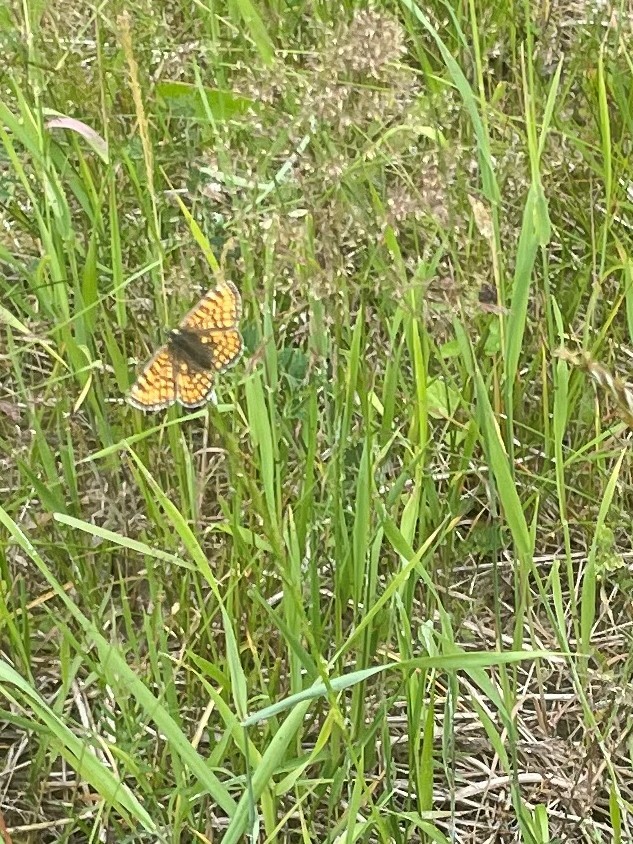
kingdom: Animalia
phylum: Arthropoda
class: Insecta
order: Lepidoptera
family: Nymphalidae
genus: Melitaea
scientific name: Melitaea athalia
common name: Heath fritillary
